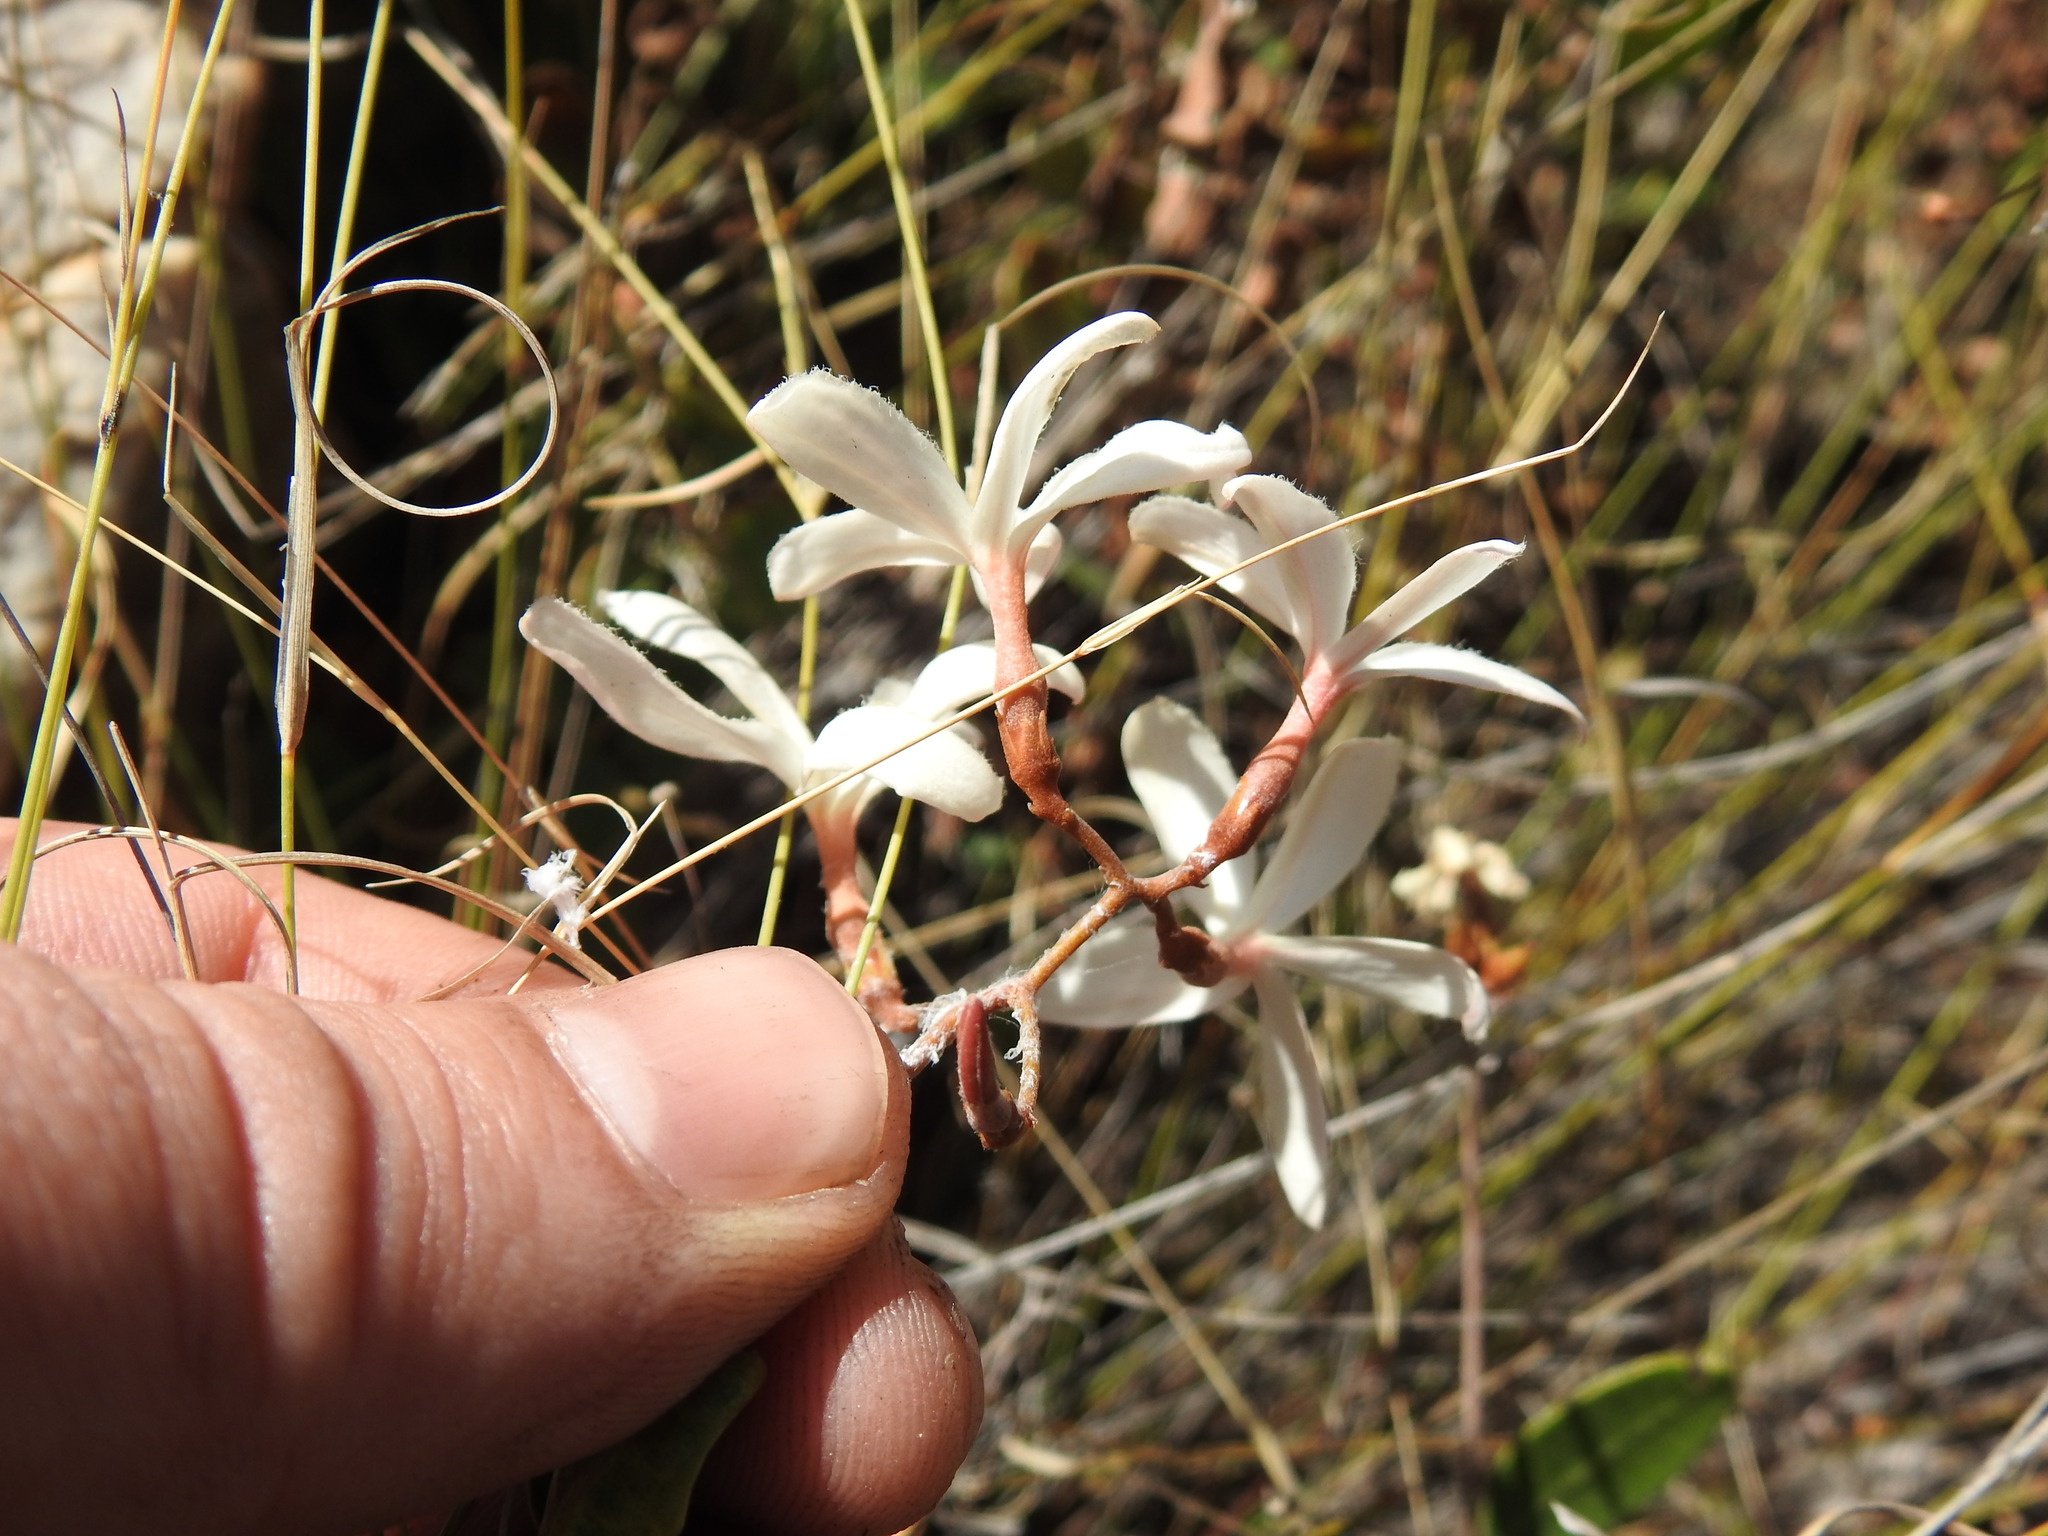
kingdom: Plantae
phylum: Tracheophyta
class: Magnoliopsida
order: Gentianales
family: Apocynaceae
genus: Ancylobothrys
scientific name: Ancylobothrys capensis
